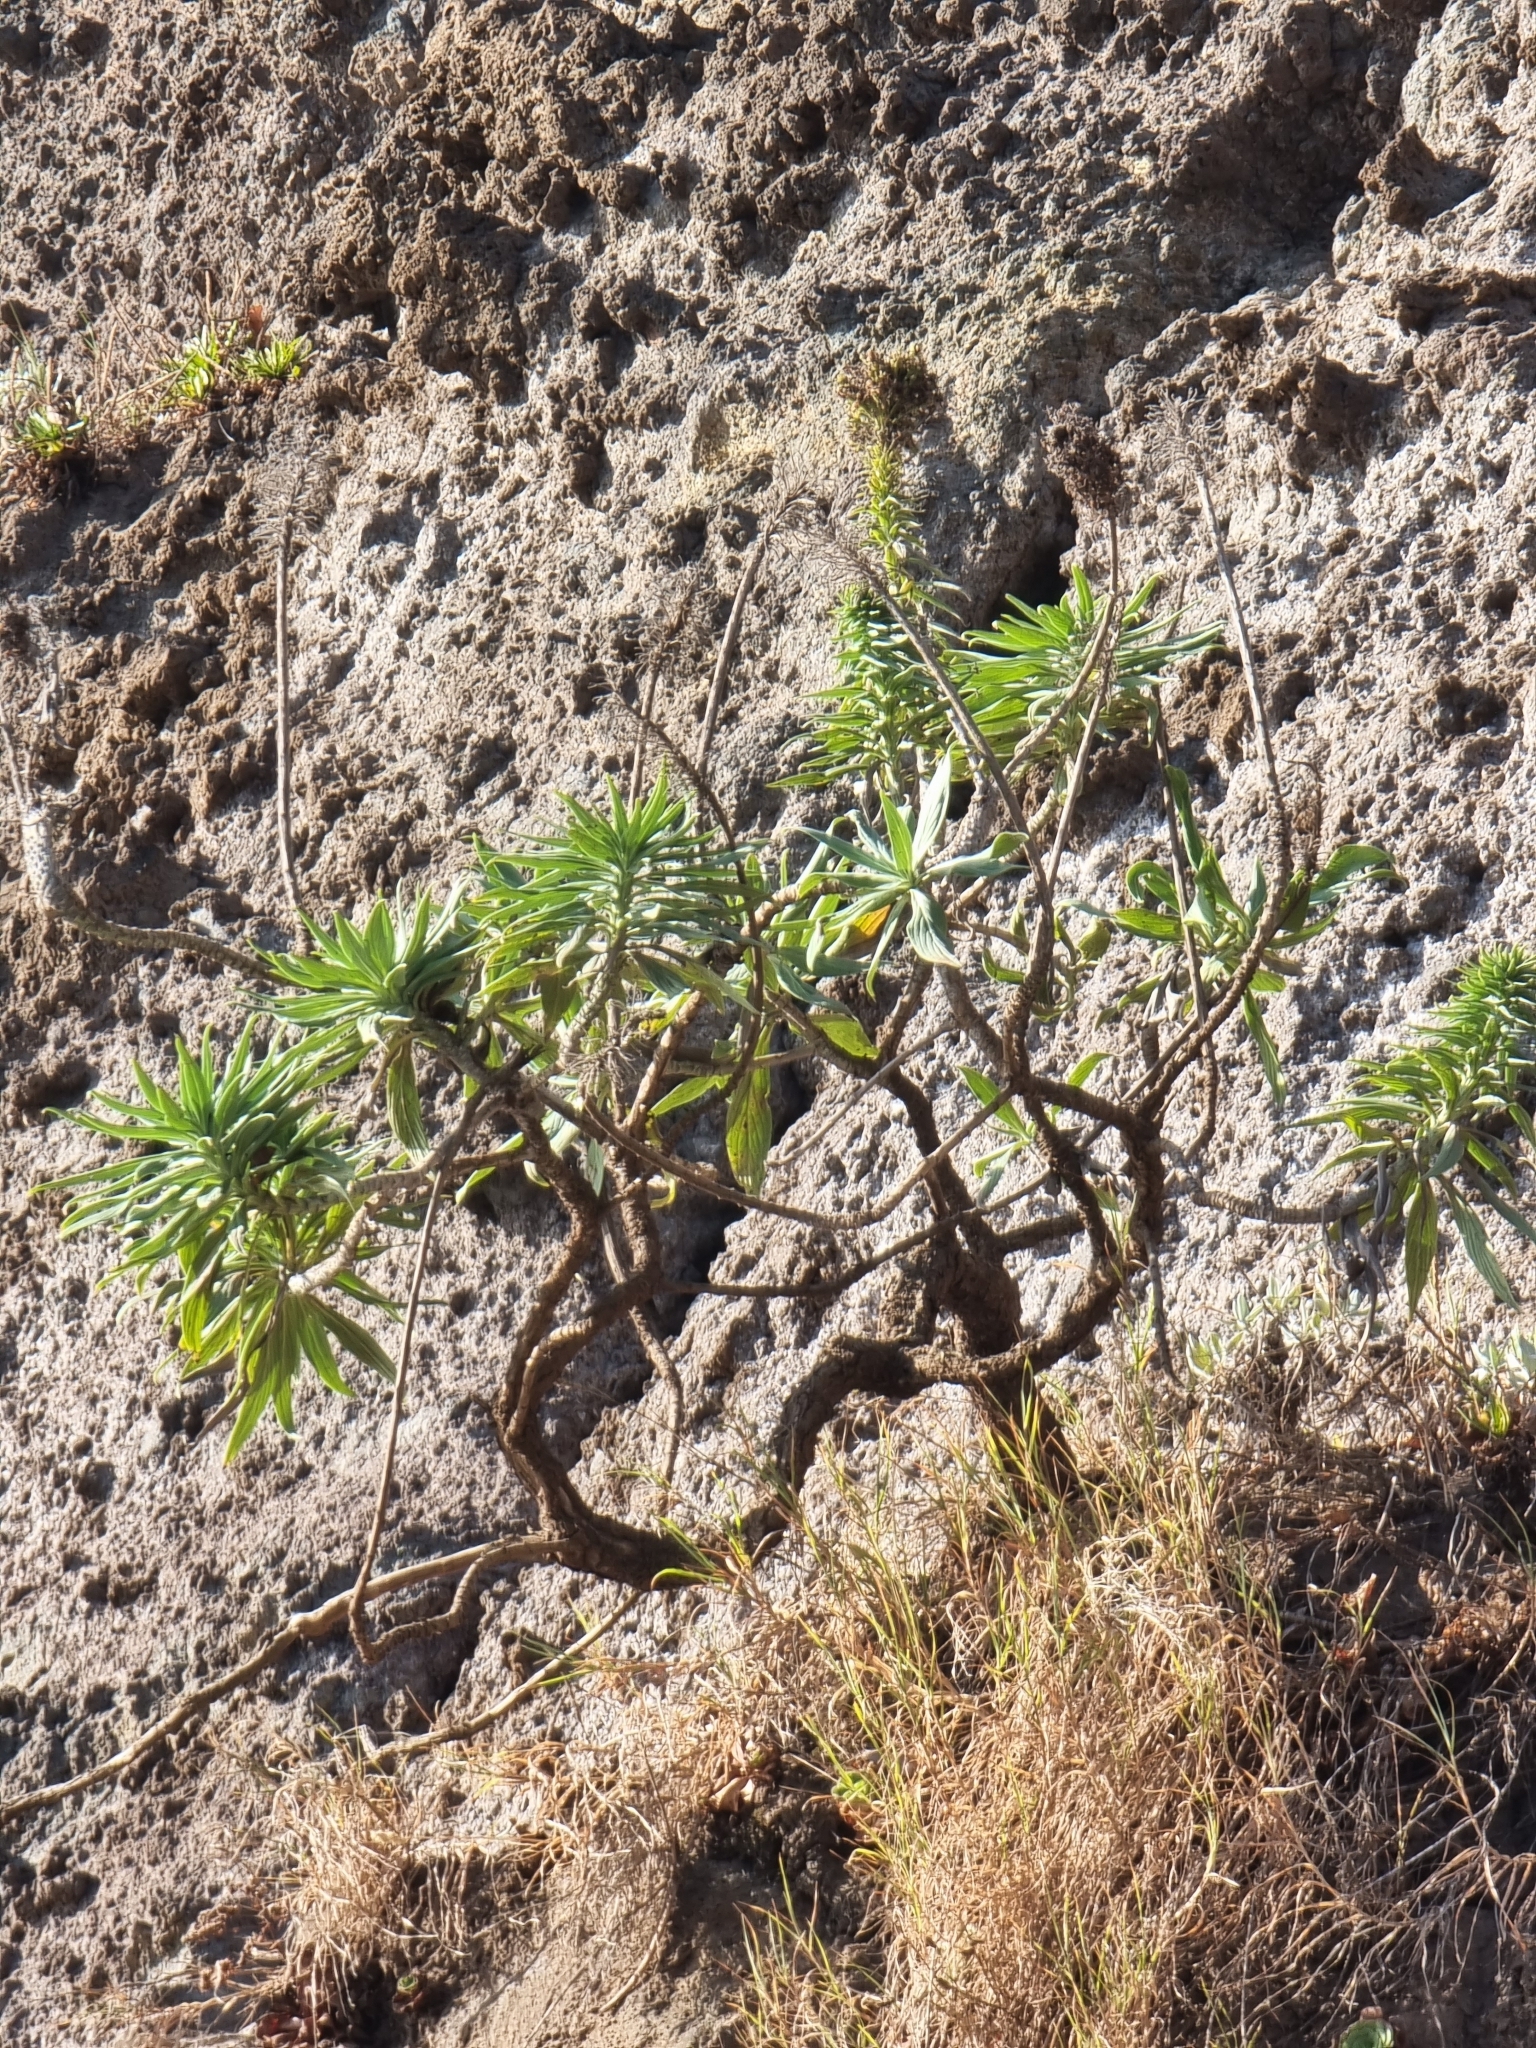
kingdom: Plantae
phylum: Tracheophyta
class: Magnoliopsida
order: Boraginales
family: Boraginaceae
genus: Echium
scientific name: Echium nervosum
